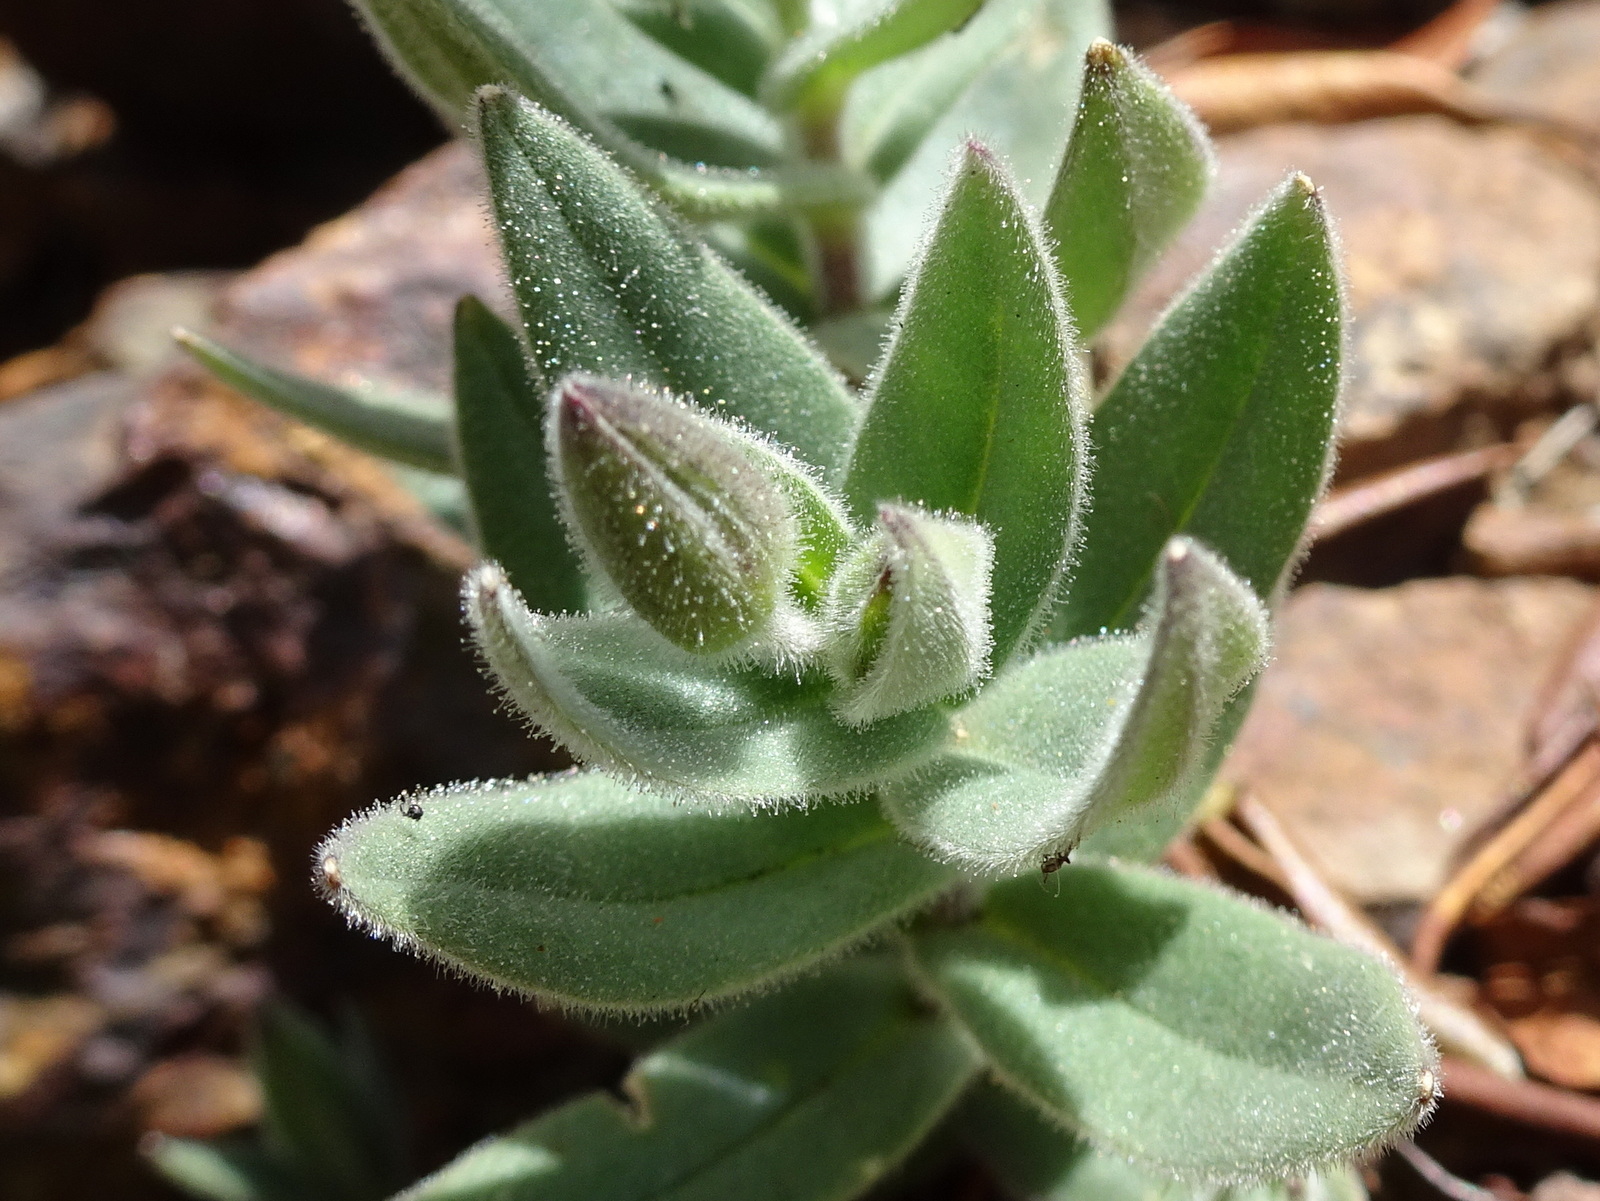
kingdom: Plantae
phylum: Tracheophyta
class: Magnoliopsida
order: Caryophyllales
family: Caryophyllaceae
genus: Cerastium
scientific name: Cerastium pyrenaicum
